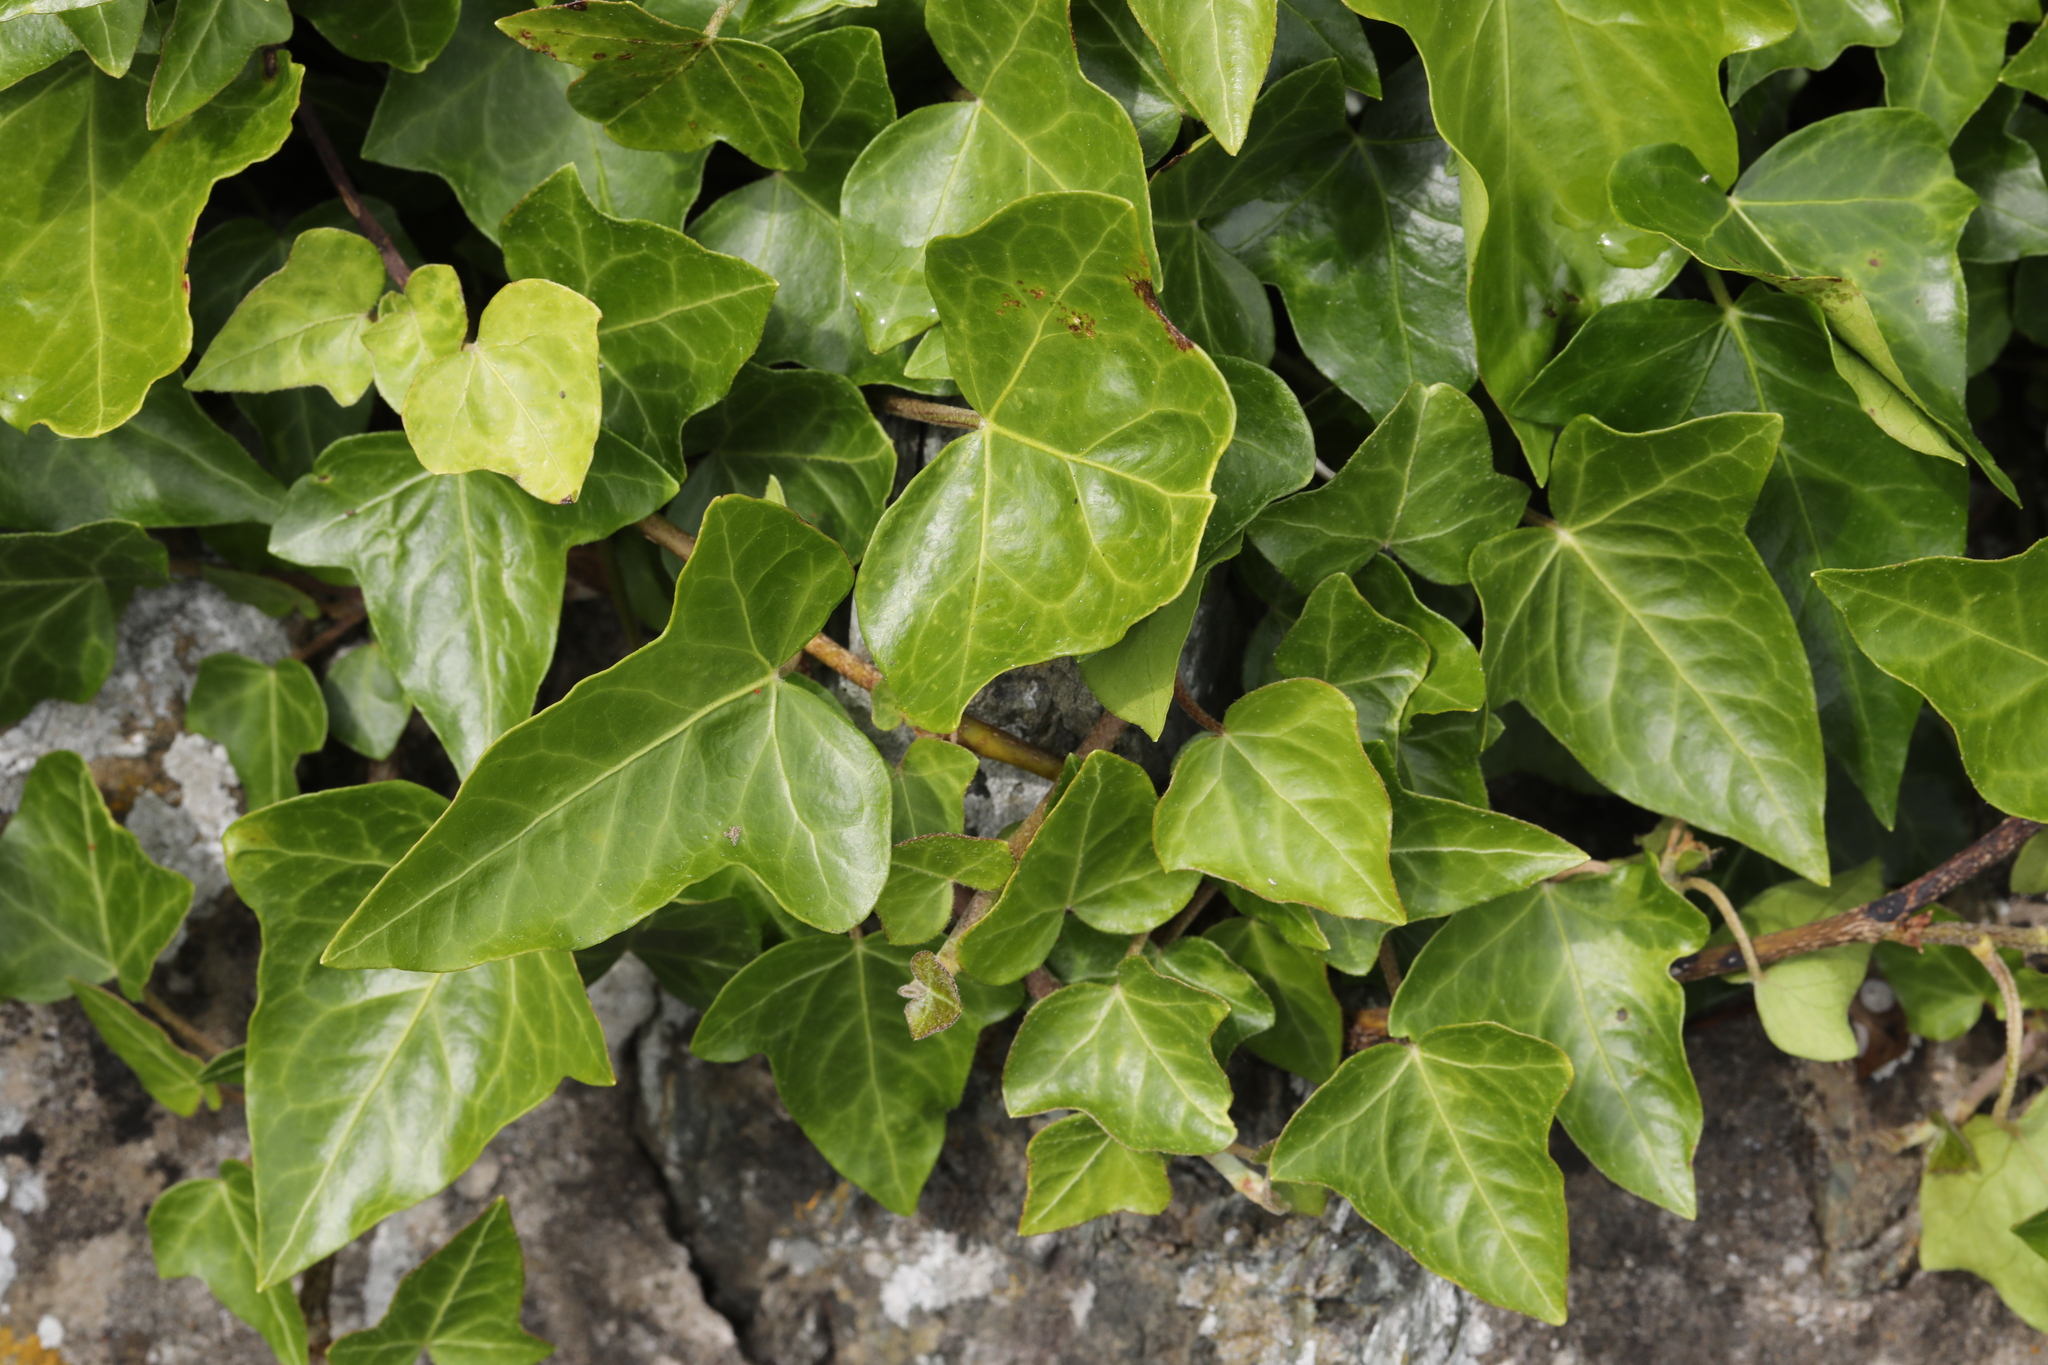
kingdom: Plantae
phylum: Tracheophyta
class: Magnoliopsida
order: Apiales
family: Araliaceae
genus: Hedera
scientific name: Hedera helix
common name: Ivy
